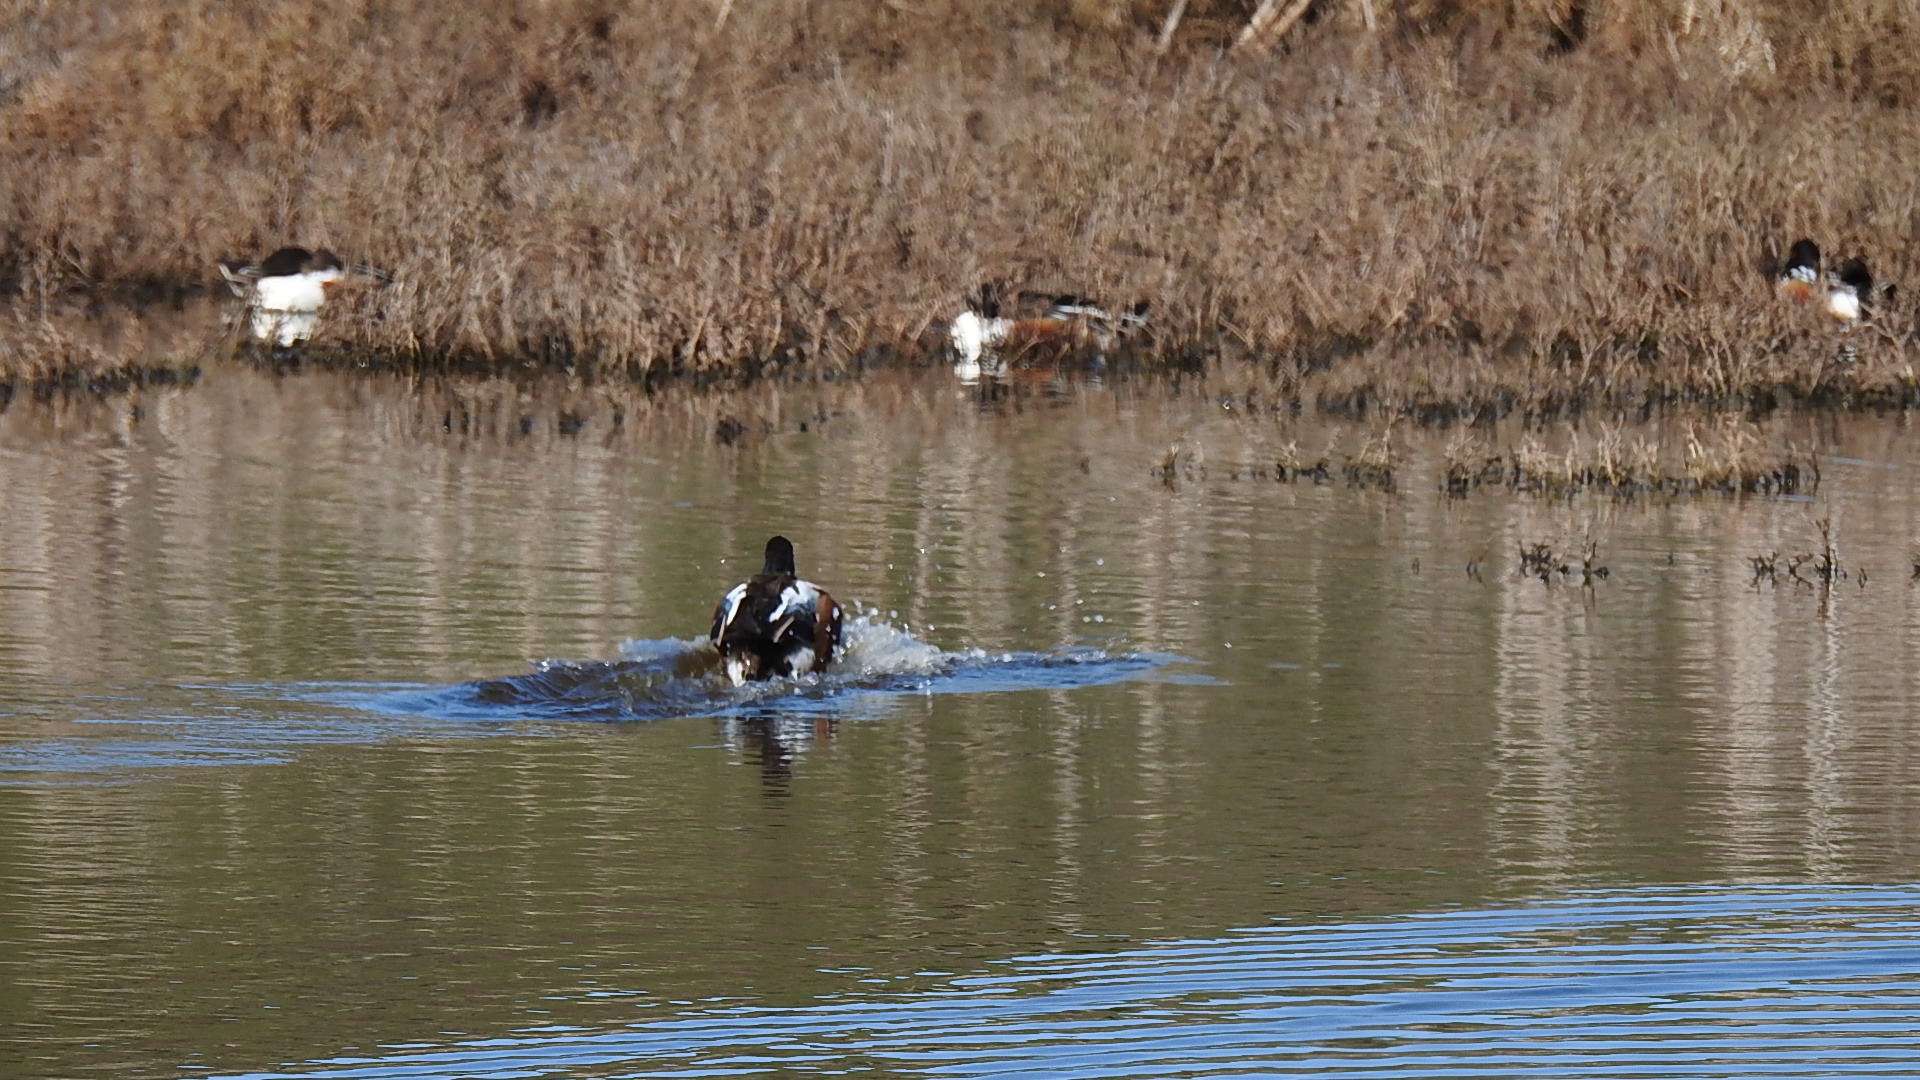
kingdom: Animalia
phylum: Chordata
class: Aves
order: Anseriformes
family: Anatidae
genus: Spatula
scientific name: Spatula clypeata
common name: Northern shoveler
